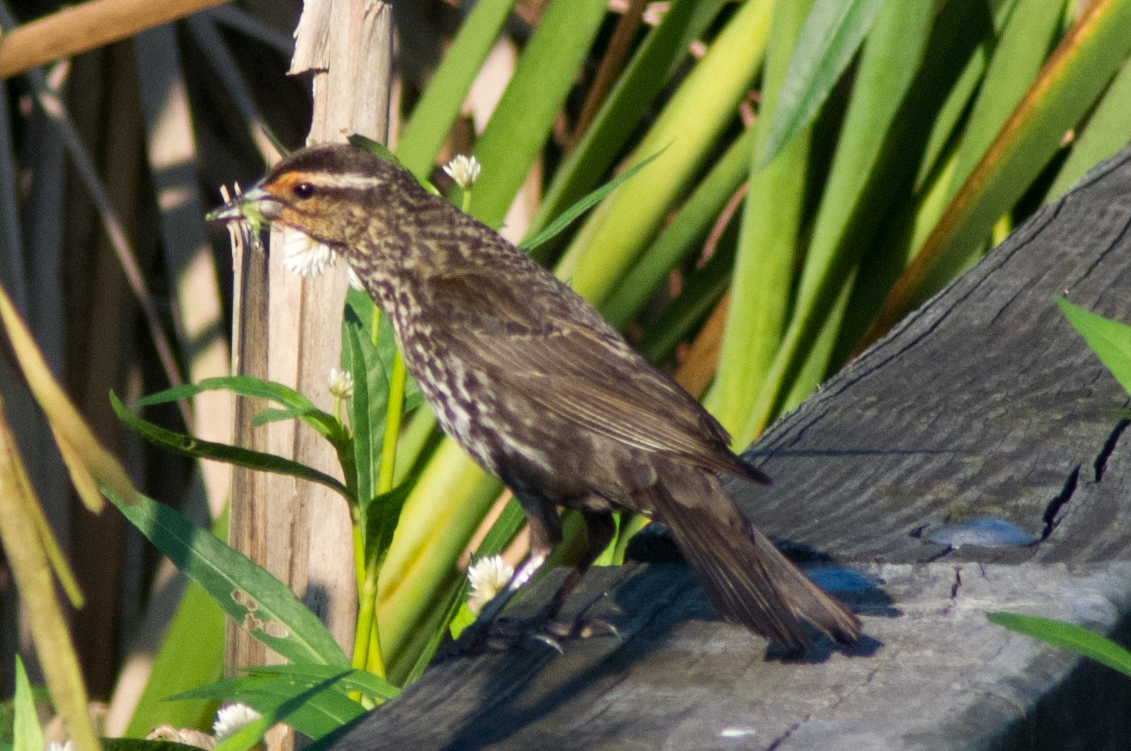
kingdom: Animalia
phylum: Chordata
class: Aves
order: Passeriformes
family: Icteridae
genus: Agelaius
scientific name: Agelaius phoeniceus
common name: Red-winged blackbird
